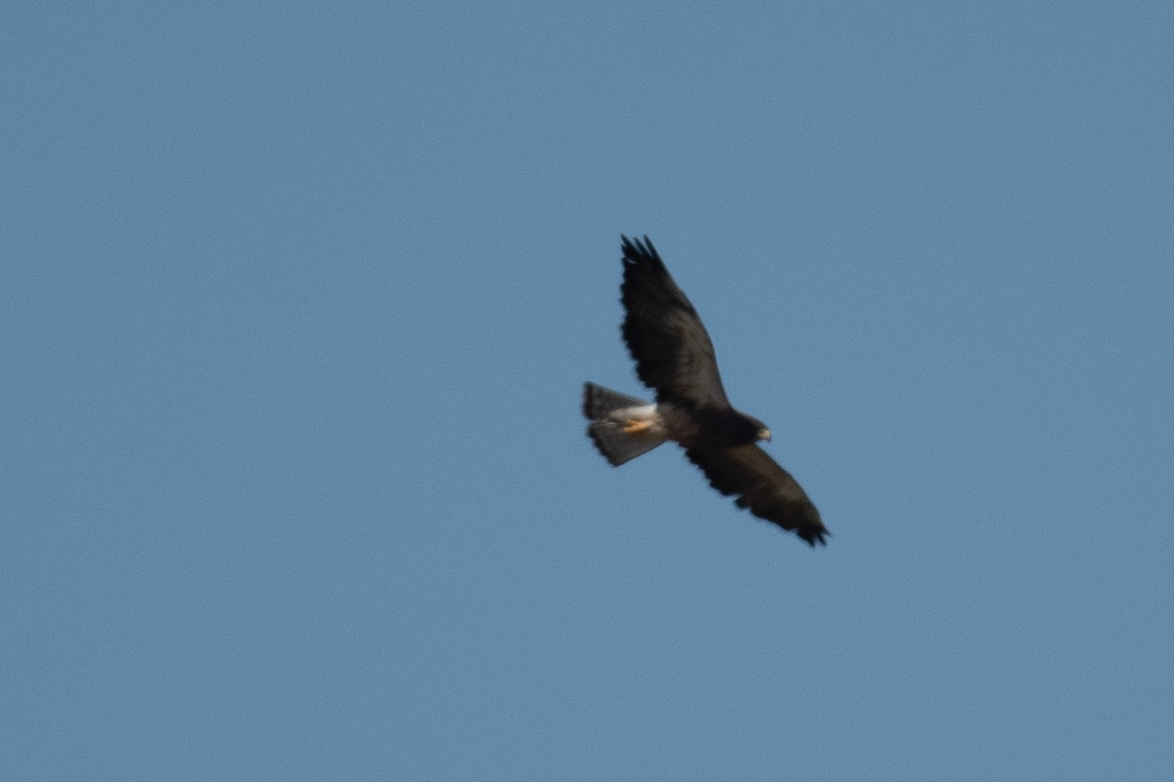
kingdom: Animalia
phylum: Chordata
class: Aves
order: Accipitriformes
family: Accipitridae
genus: Buteo
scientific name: Buteo swainsoni
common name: Swainson's hawk
